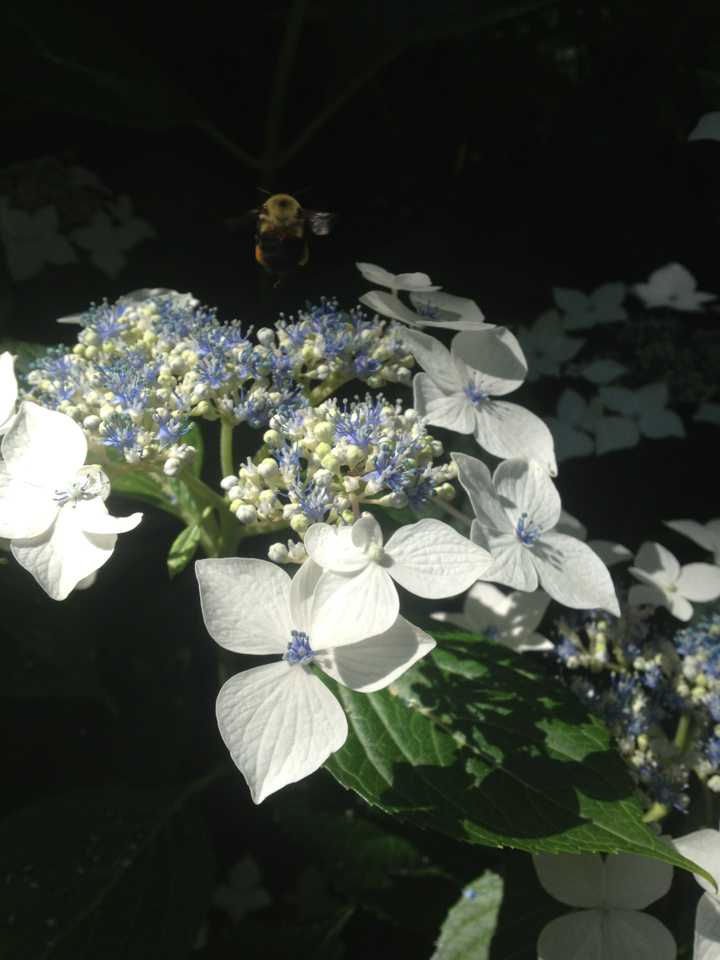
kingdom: Animalia
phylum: Arthropoda
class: Insecta
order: Hymenoptera
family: Apidae
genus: Bombus
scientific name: Bombus griseocollis
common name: Brown-belted bumble bee
